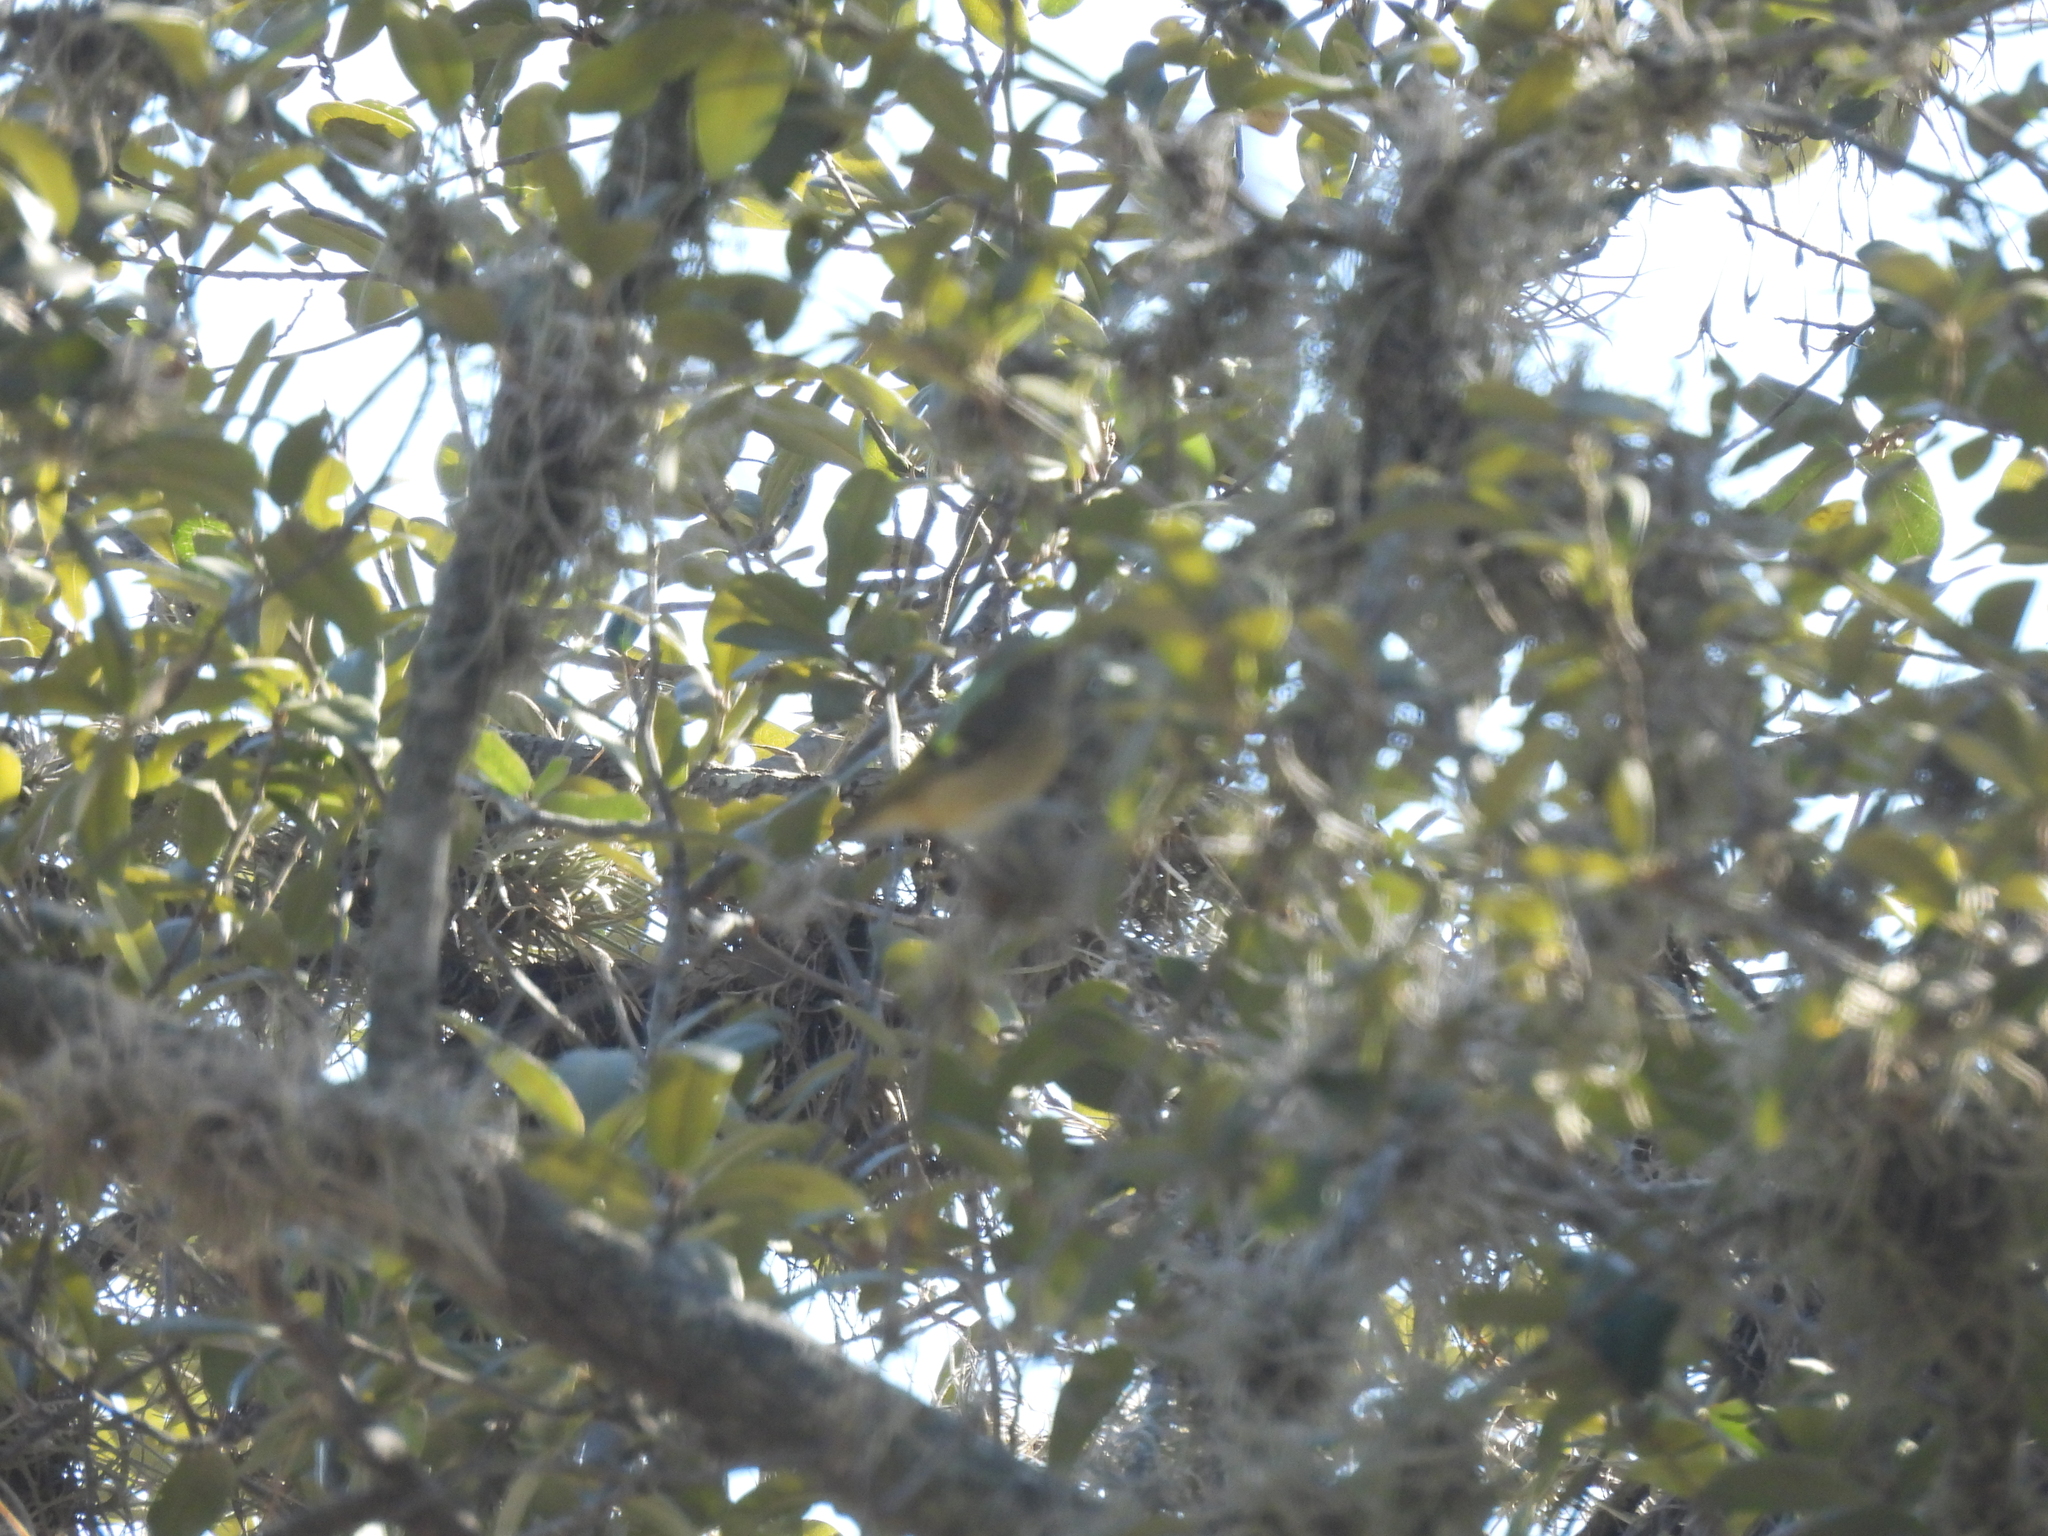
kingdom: Animalia
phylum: Chordata
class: Aves
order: Passeriformes
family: Regulidae
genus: Regulus
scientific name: Regulus calendula
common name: Ruby-crowned kinglet
